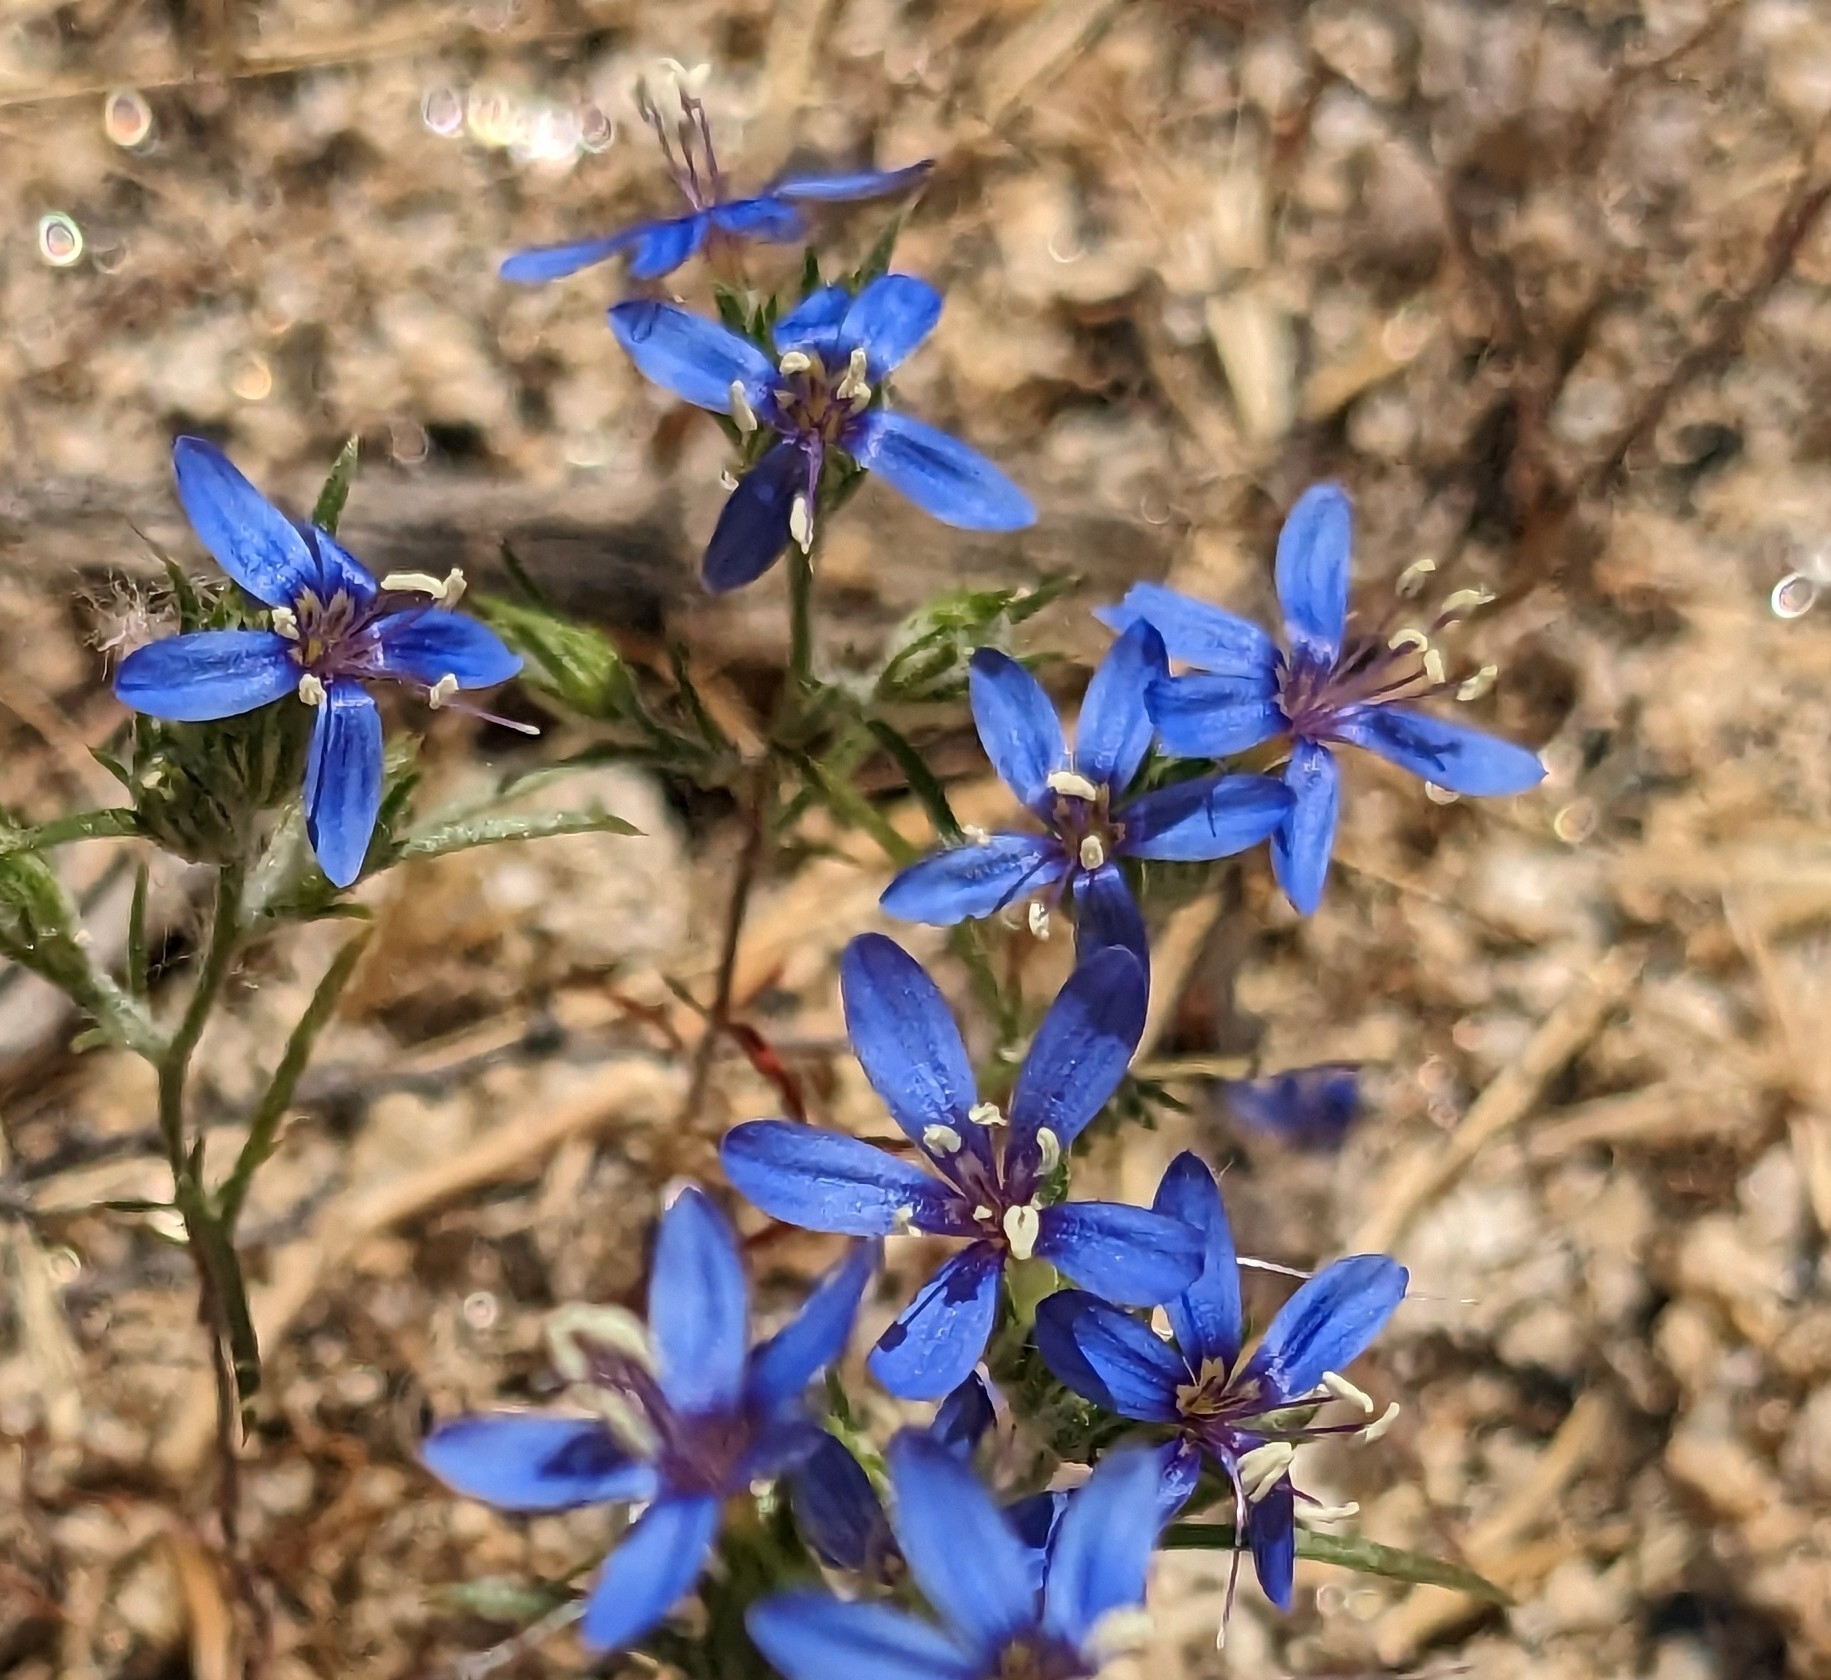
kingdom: Plantae
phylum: Tracheophyta
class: Magnoliopsida
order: Ericales
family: Polemoniaceae
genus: Eriastrum
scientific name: Eriastrum sapphirinum
